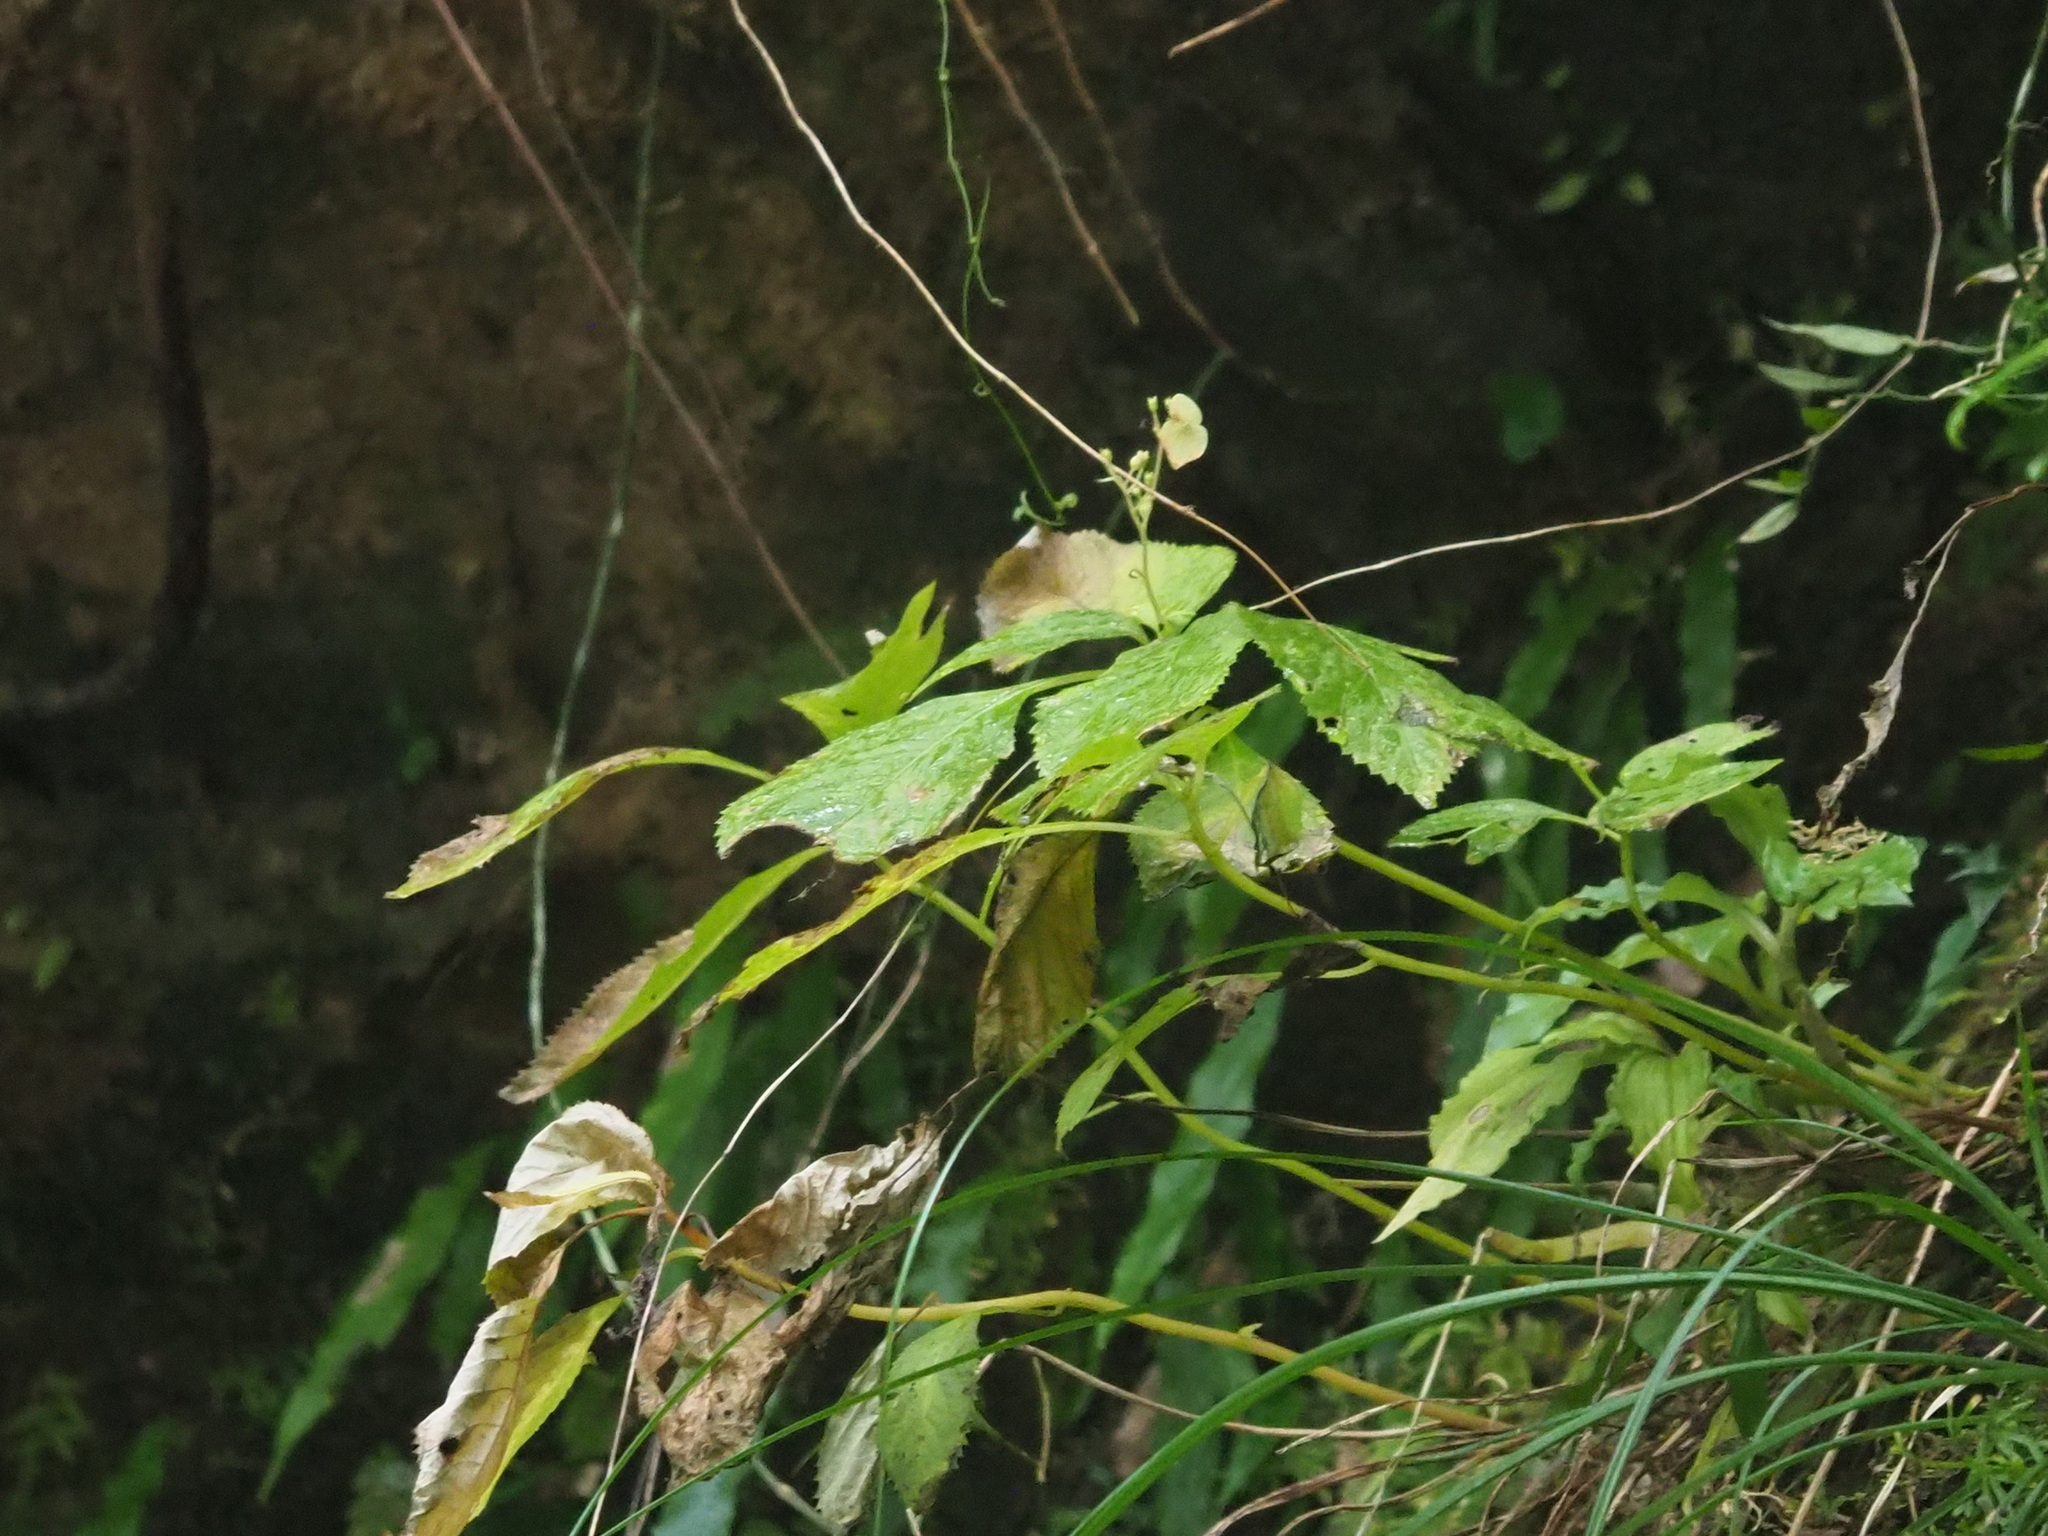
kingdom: Plantae
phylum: Tracheophyta
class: Magnoliopsida
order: Cornales
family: Hydrangeaceae
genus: Hydrangea
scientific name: Hydrangea densifolia
